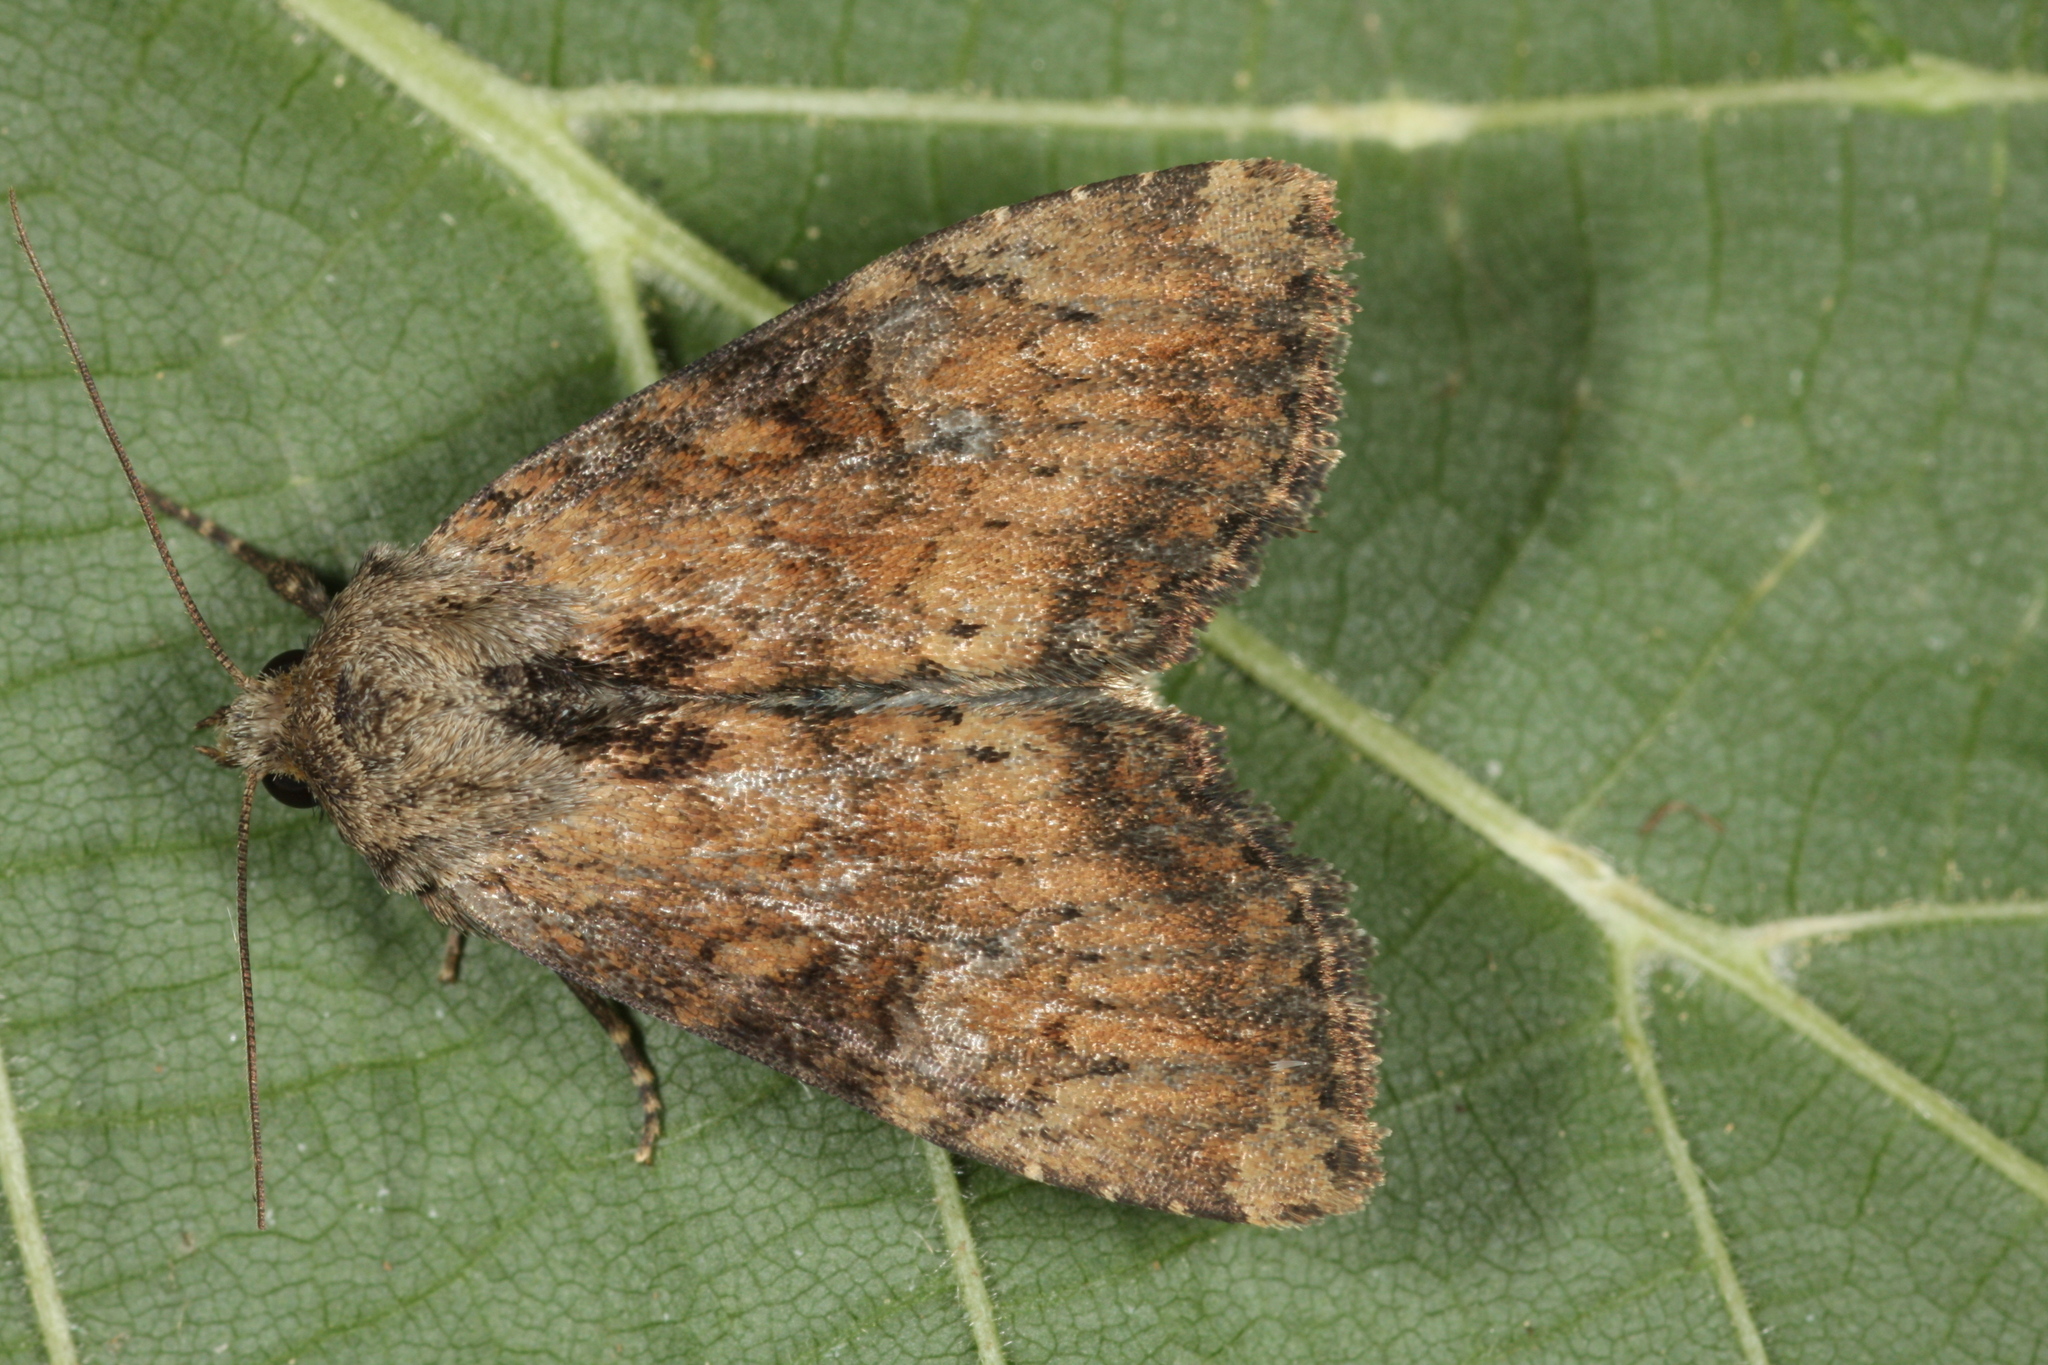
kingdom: Animalia
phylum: Arthropoda
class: Insecta
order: Lepidoptera
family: Noctuidae
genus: Loscopia
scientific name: Loscopia scolopacina
